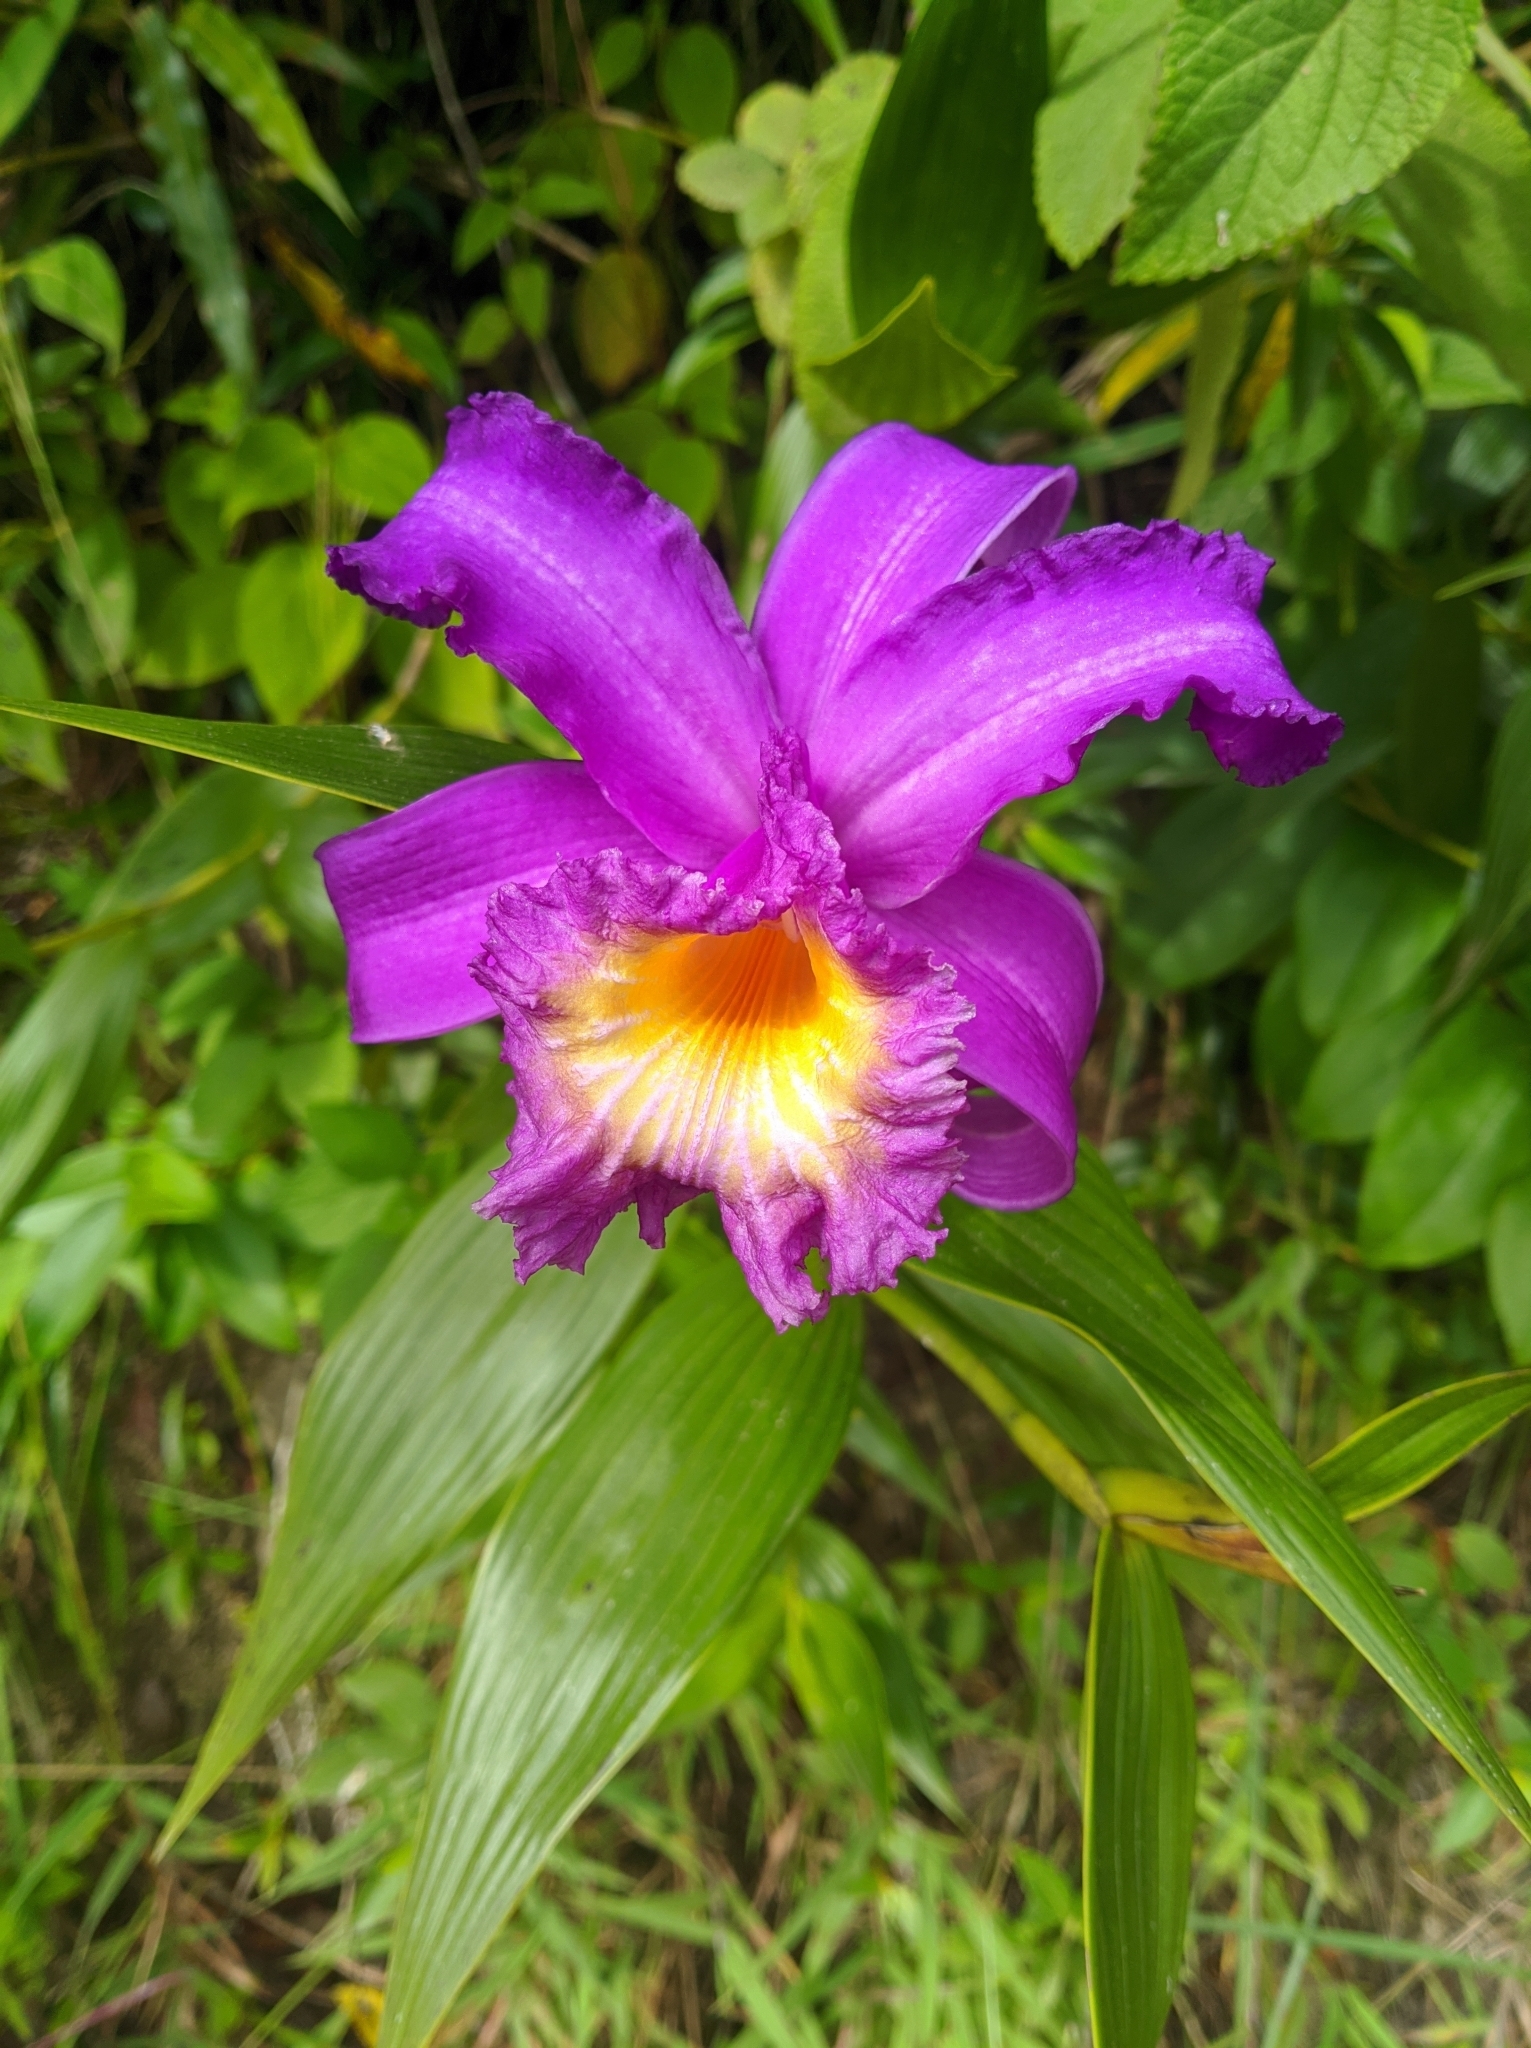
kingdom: Plantae
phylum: Tracheophyta
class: Liliopsida
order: Asparagales
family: Orchidaceae
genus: Sobralia
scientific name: Sobralia violacea
